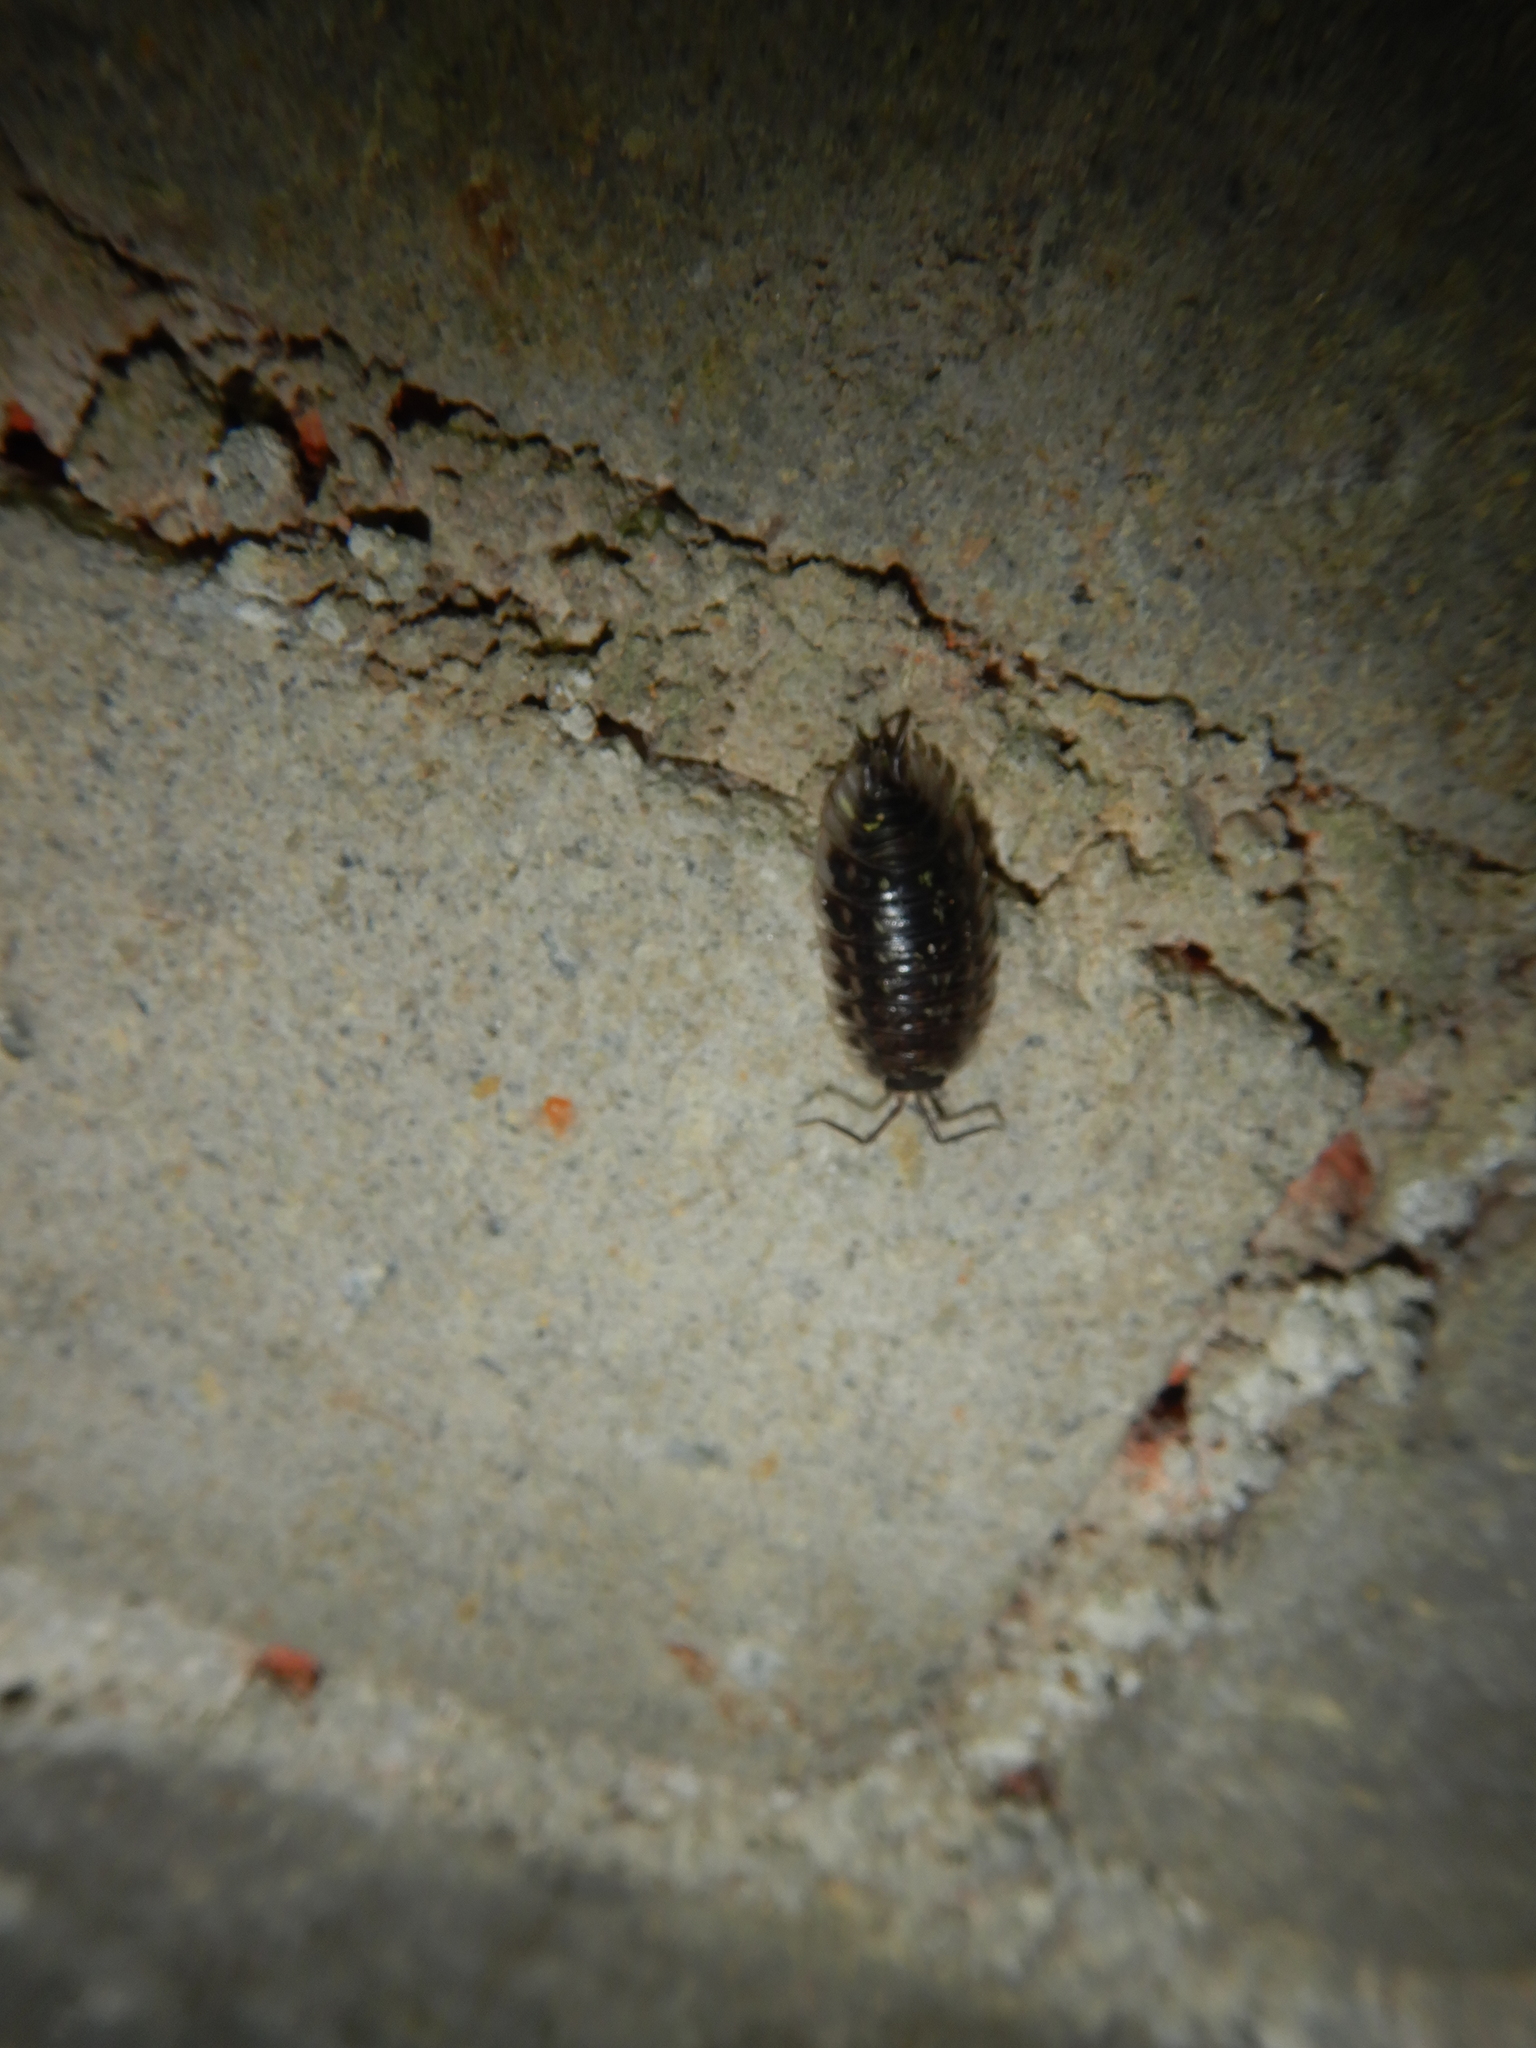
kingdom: Animalia
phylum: Arthropoda
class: Malacostraca
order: Isopoda
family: Oniscidae
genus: Oniscus
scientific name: Oniscus asellus
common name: Common shiny woodlouse
